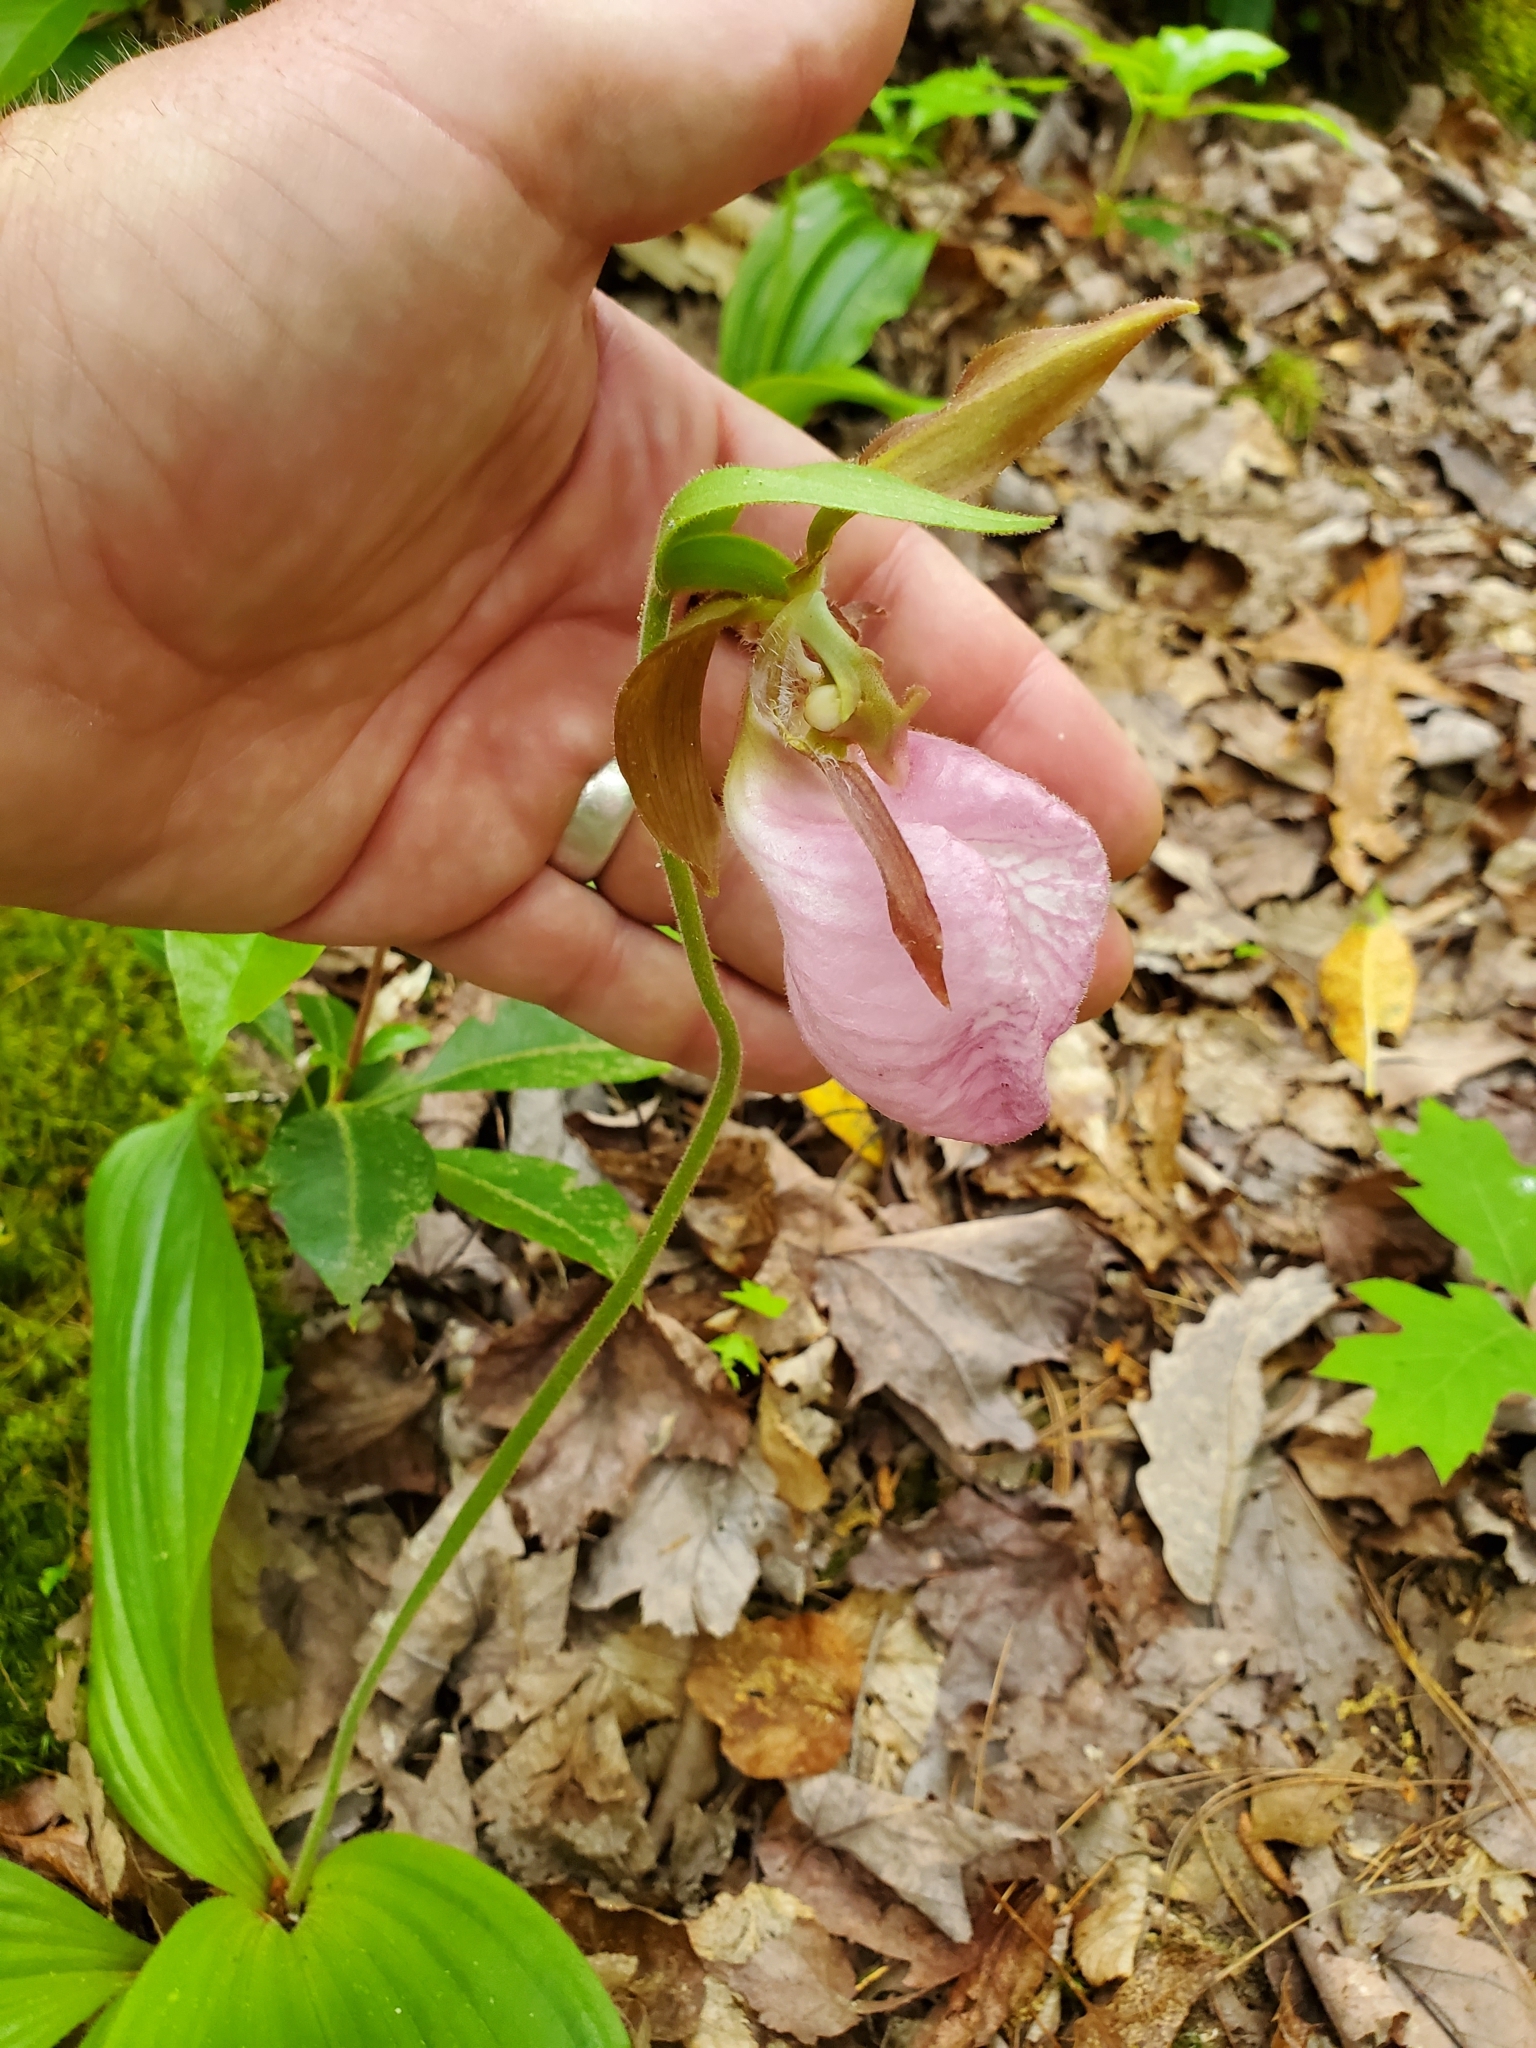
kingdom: Plantae
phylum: Tracheophyta
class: Liliopsida
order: Asparagales
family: Orchidaceae
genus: Cypripedium
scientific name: Cypripedium acaule
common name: Pink lady's-slipper
